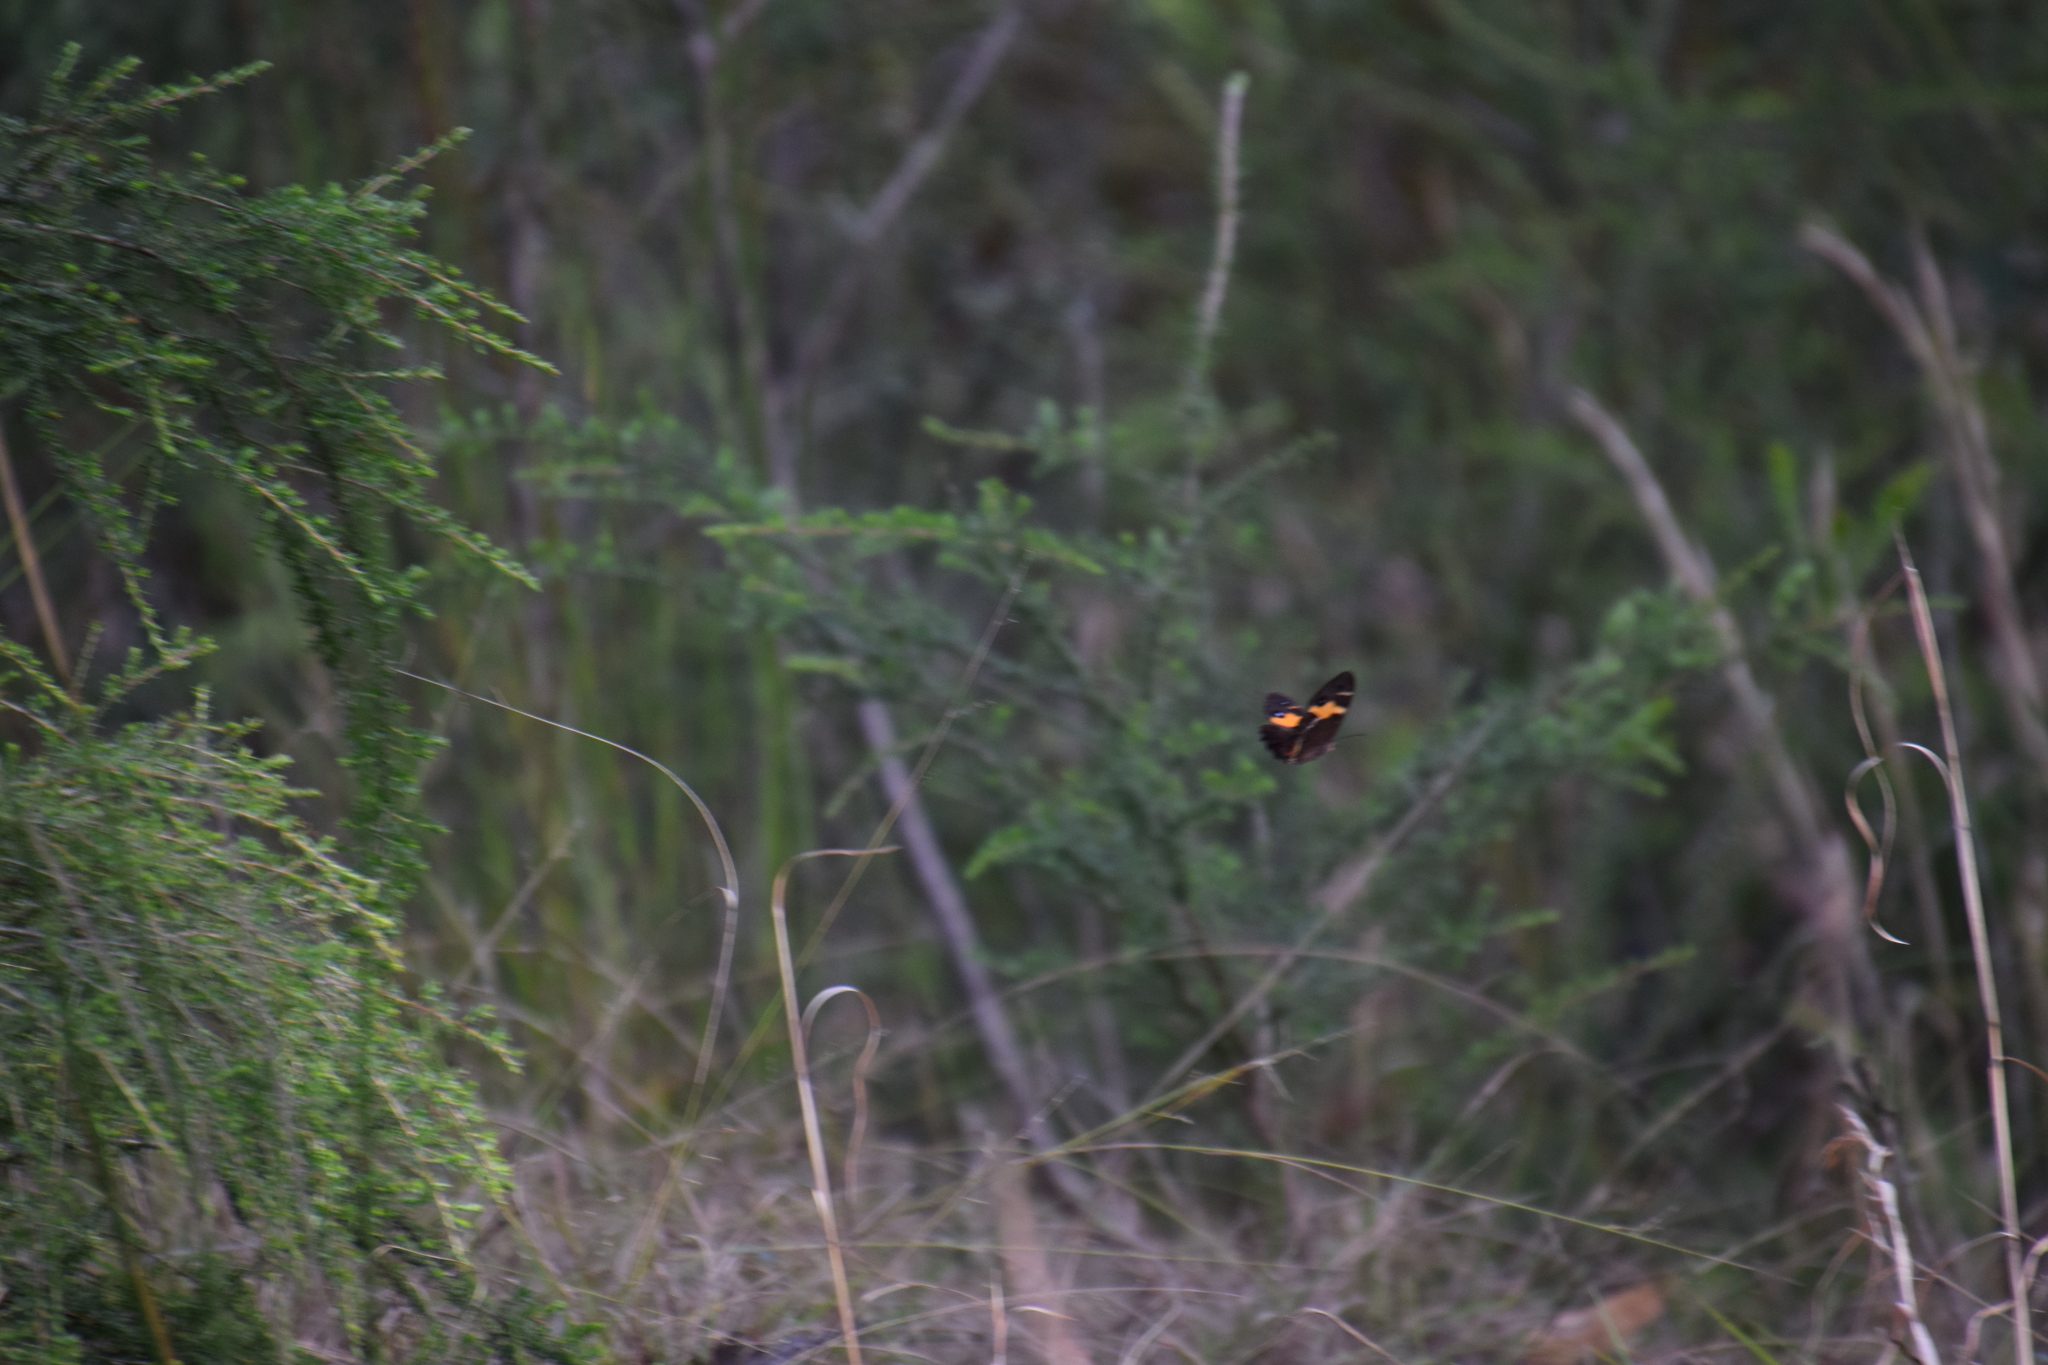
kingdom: Animalia
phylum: Arthropoda
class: Insecta
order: Lepidoptera
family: Nymphalidae
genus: Tisiphone
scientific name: Tisiphone abeona
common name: Swordgrass brown
